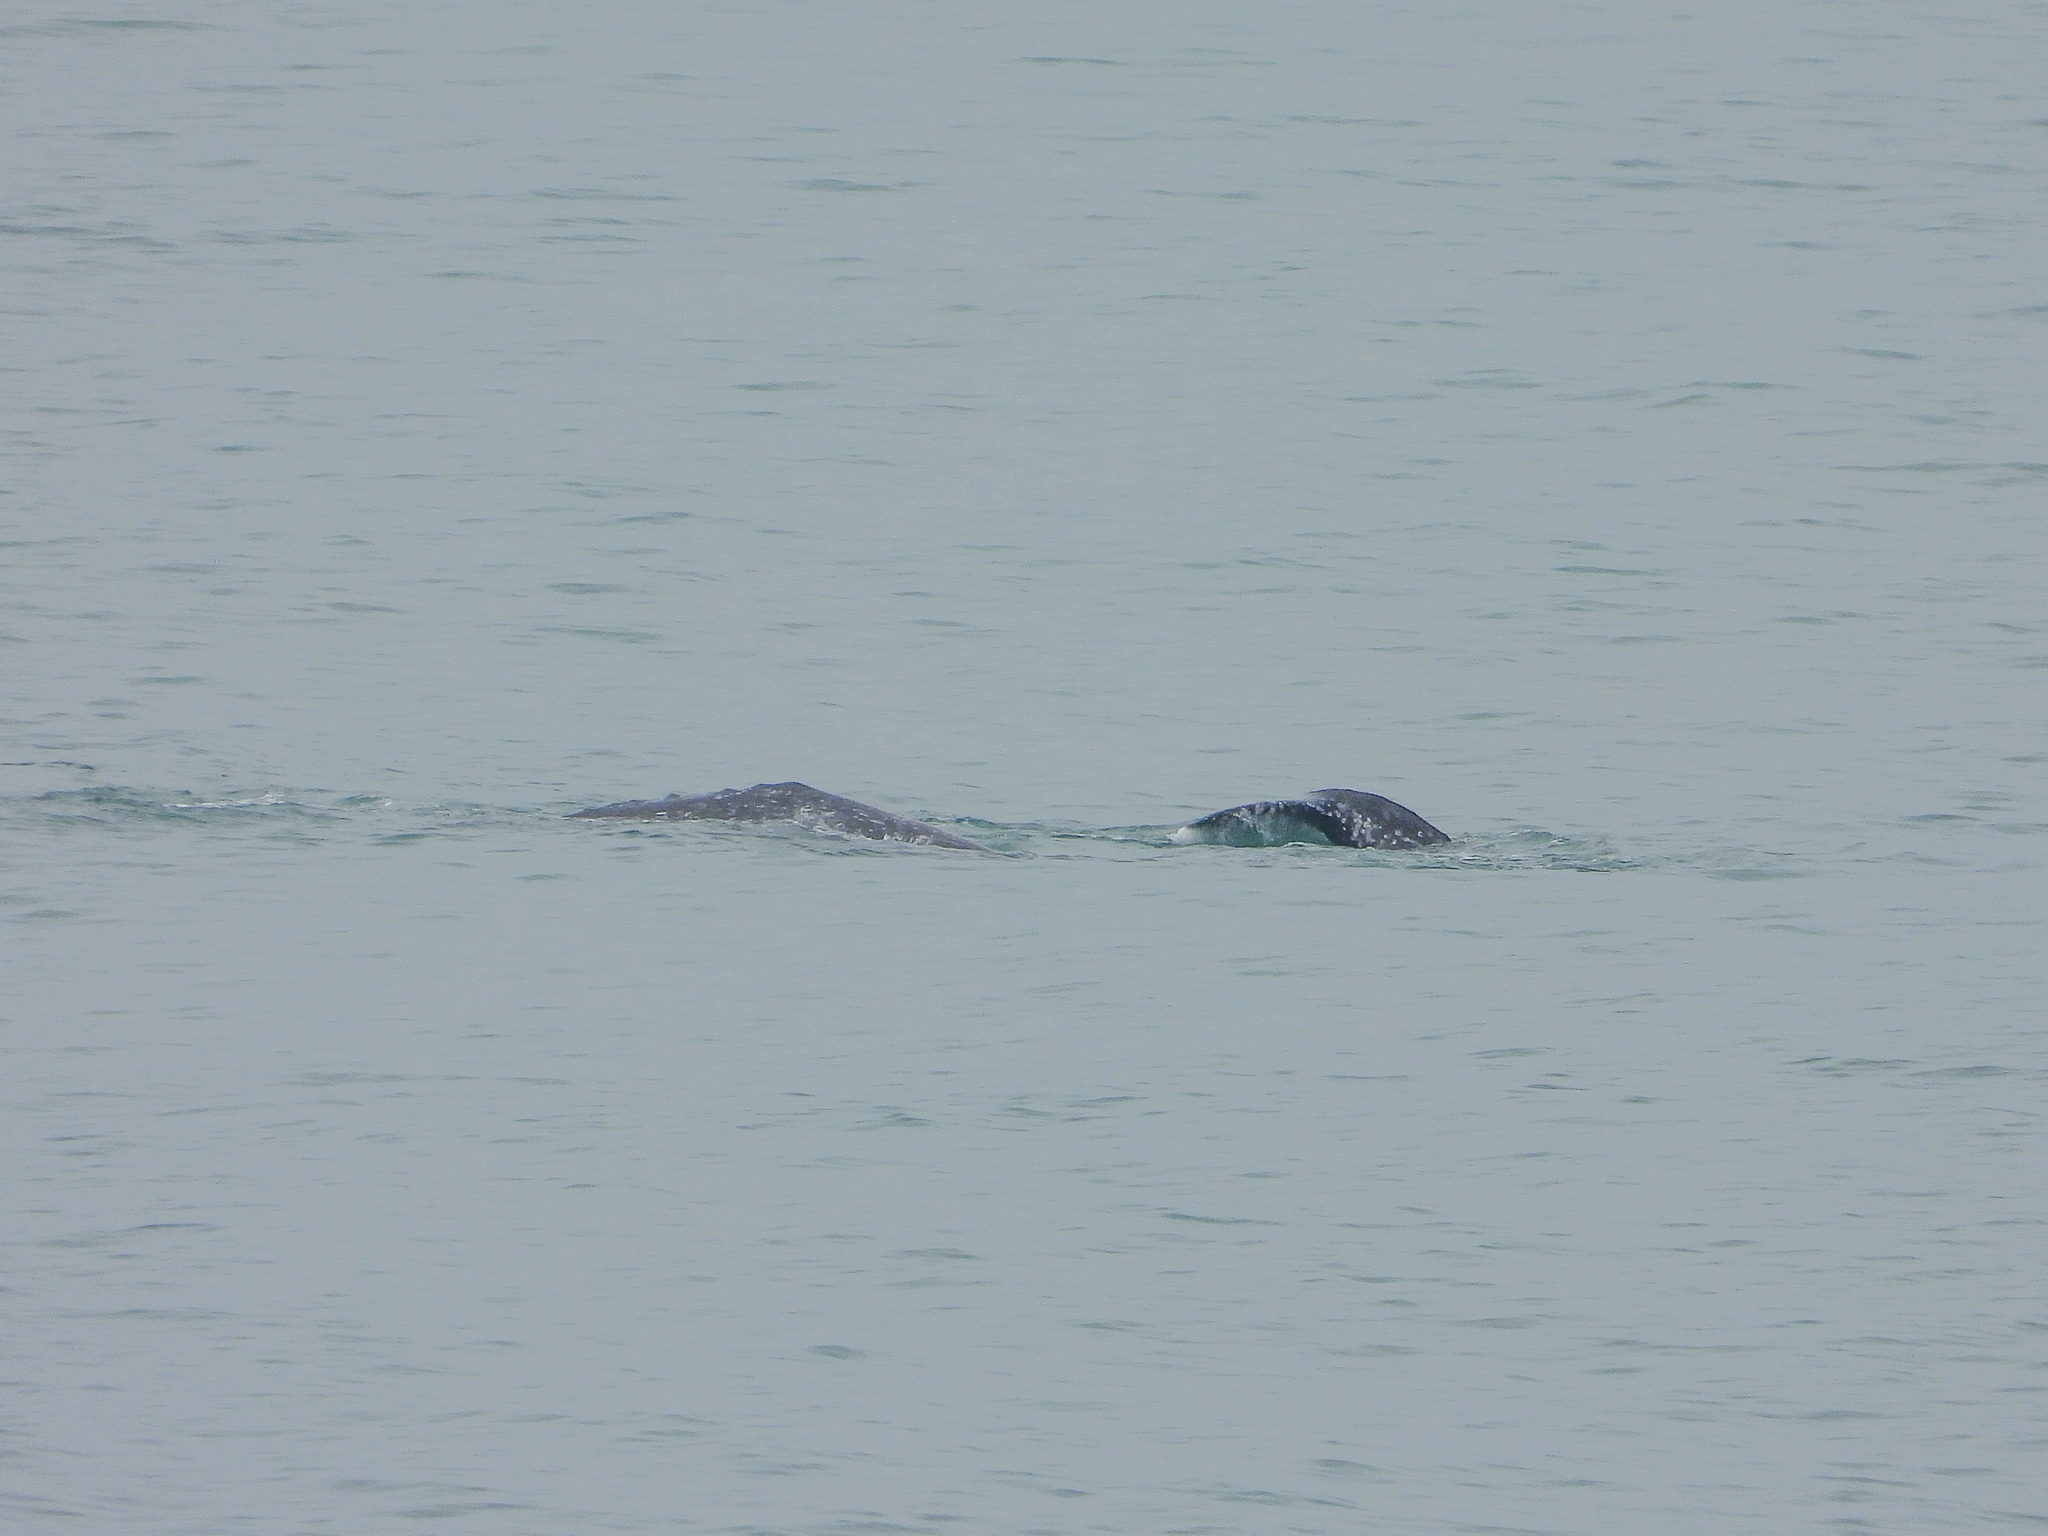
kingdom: Animalia
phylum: Chordata
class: Mammalia
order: Cetacea
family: Eschrichtiidae
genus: Eschrichtius
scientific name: Eschrichtius robustus
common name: Gray whale
